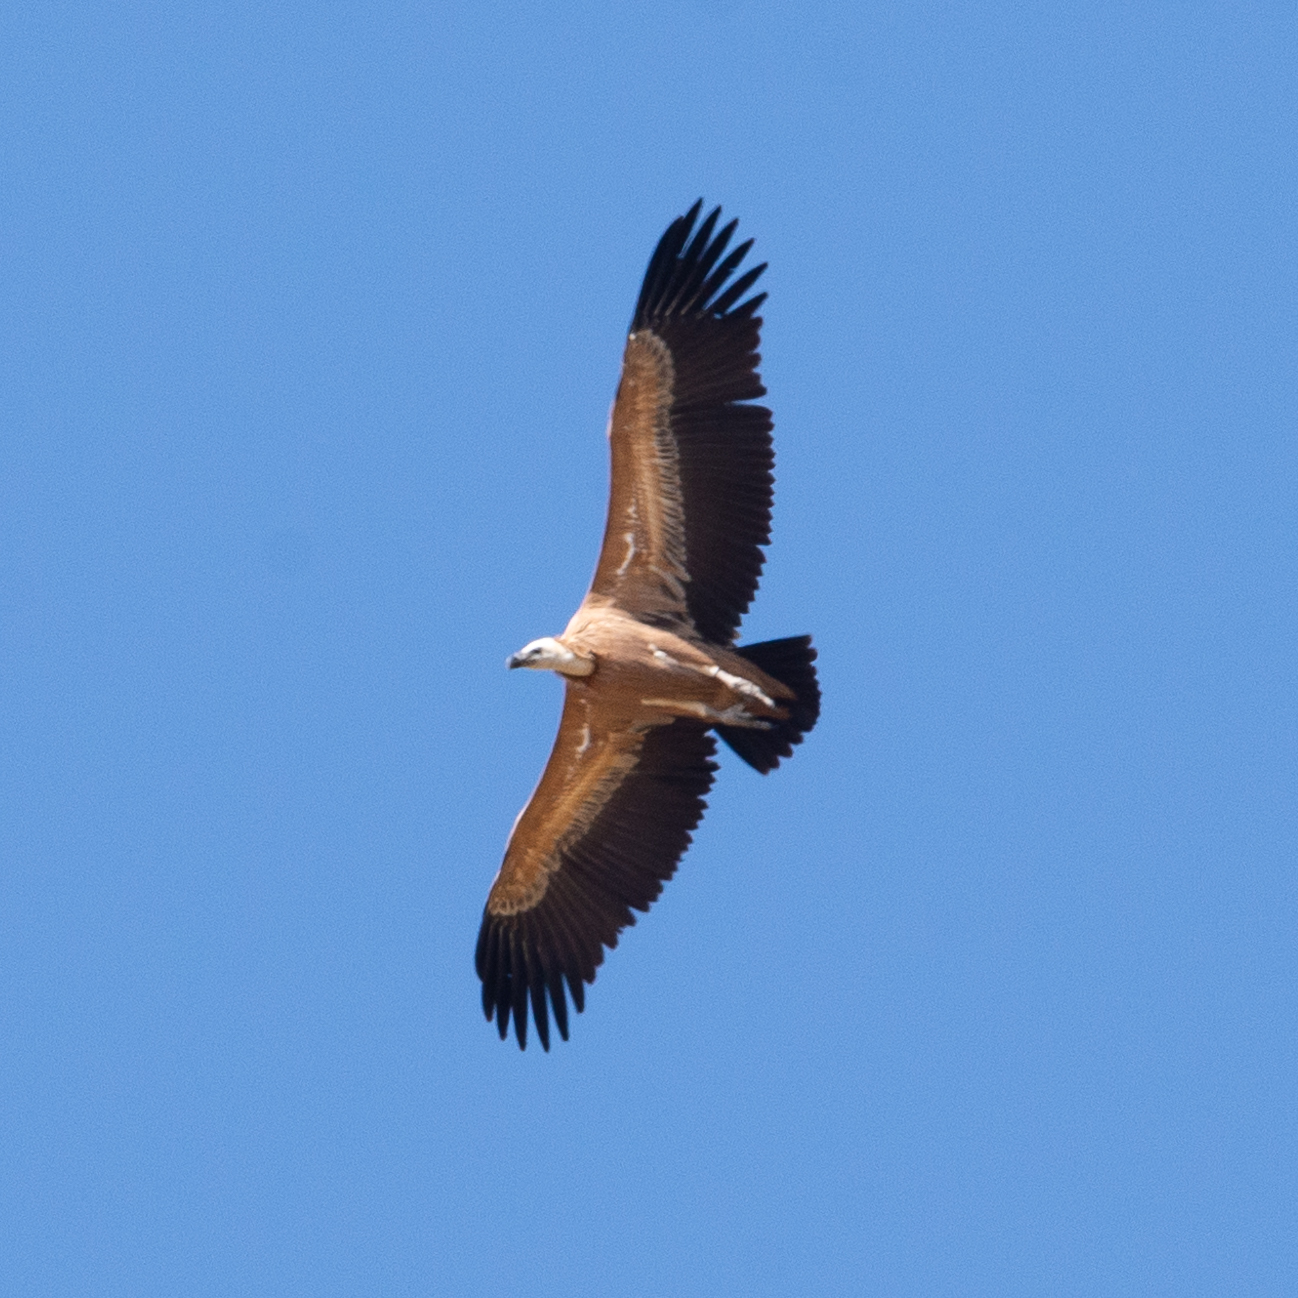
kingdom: Animalia
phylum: Chordata
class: Aves
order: Accipitriformes
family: Accipitridae
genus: Gyps
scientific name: Gyps fulvus
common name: Griffon vulture
